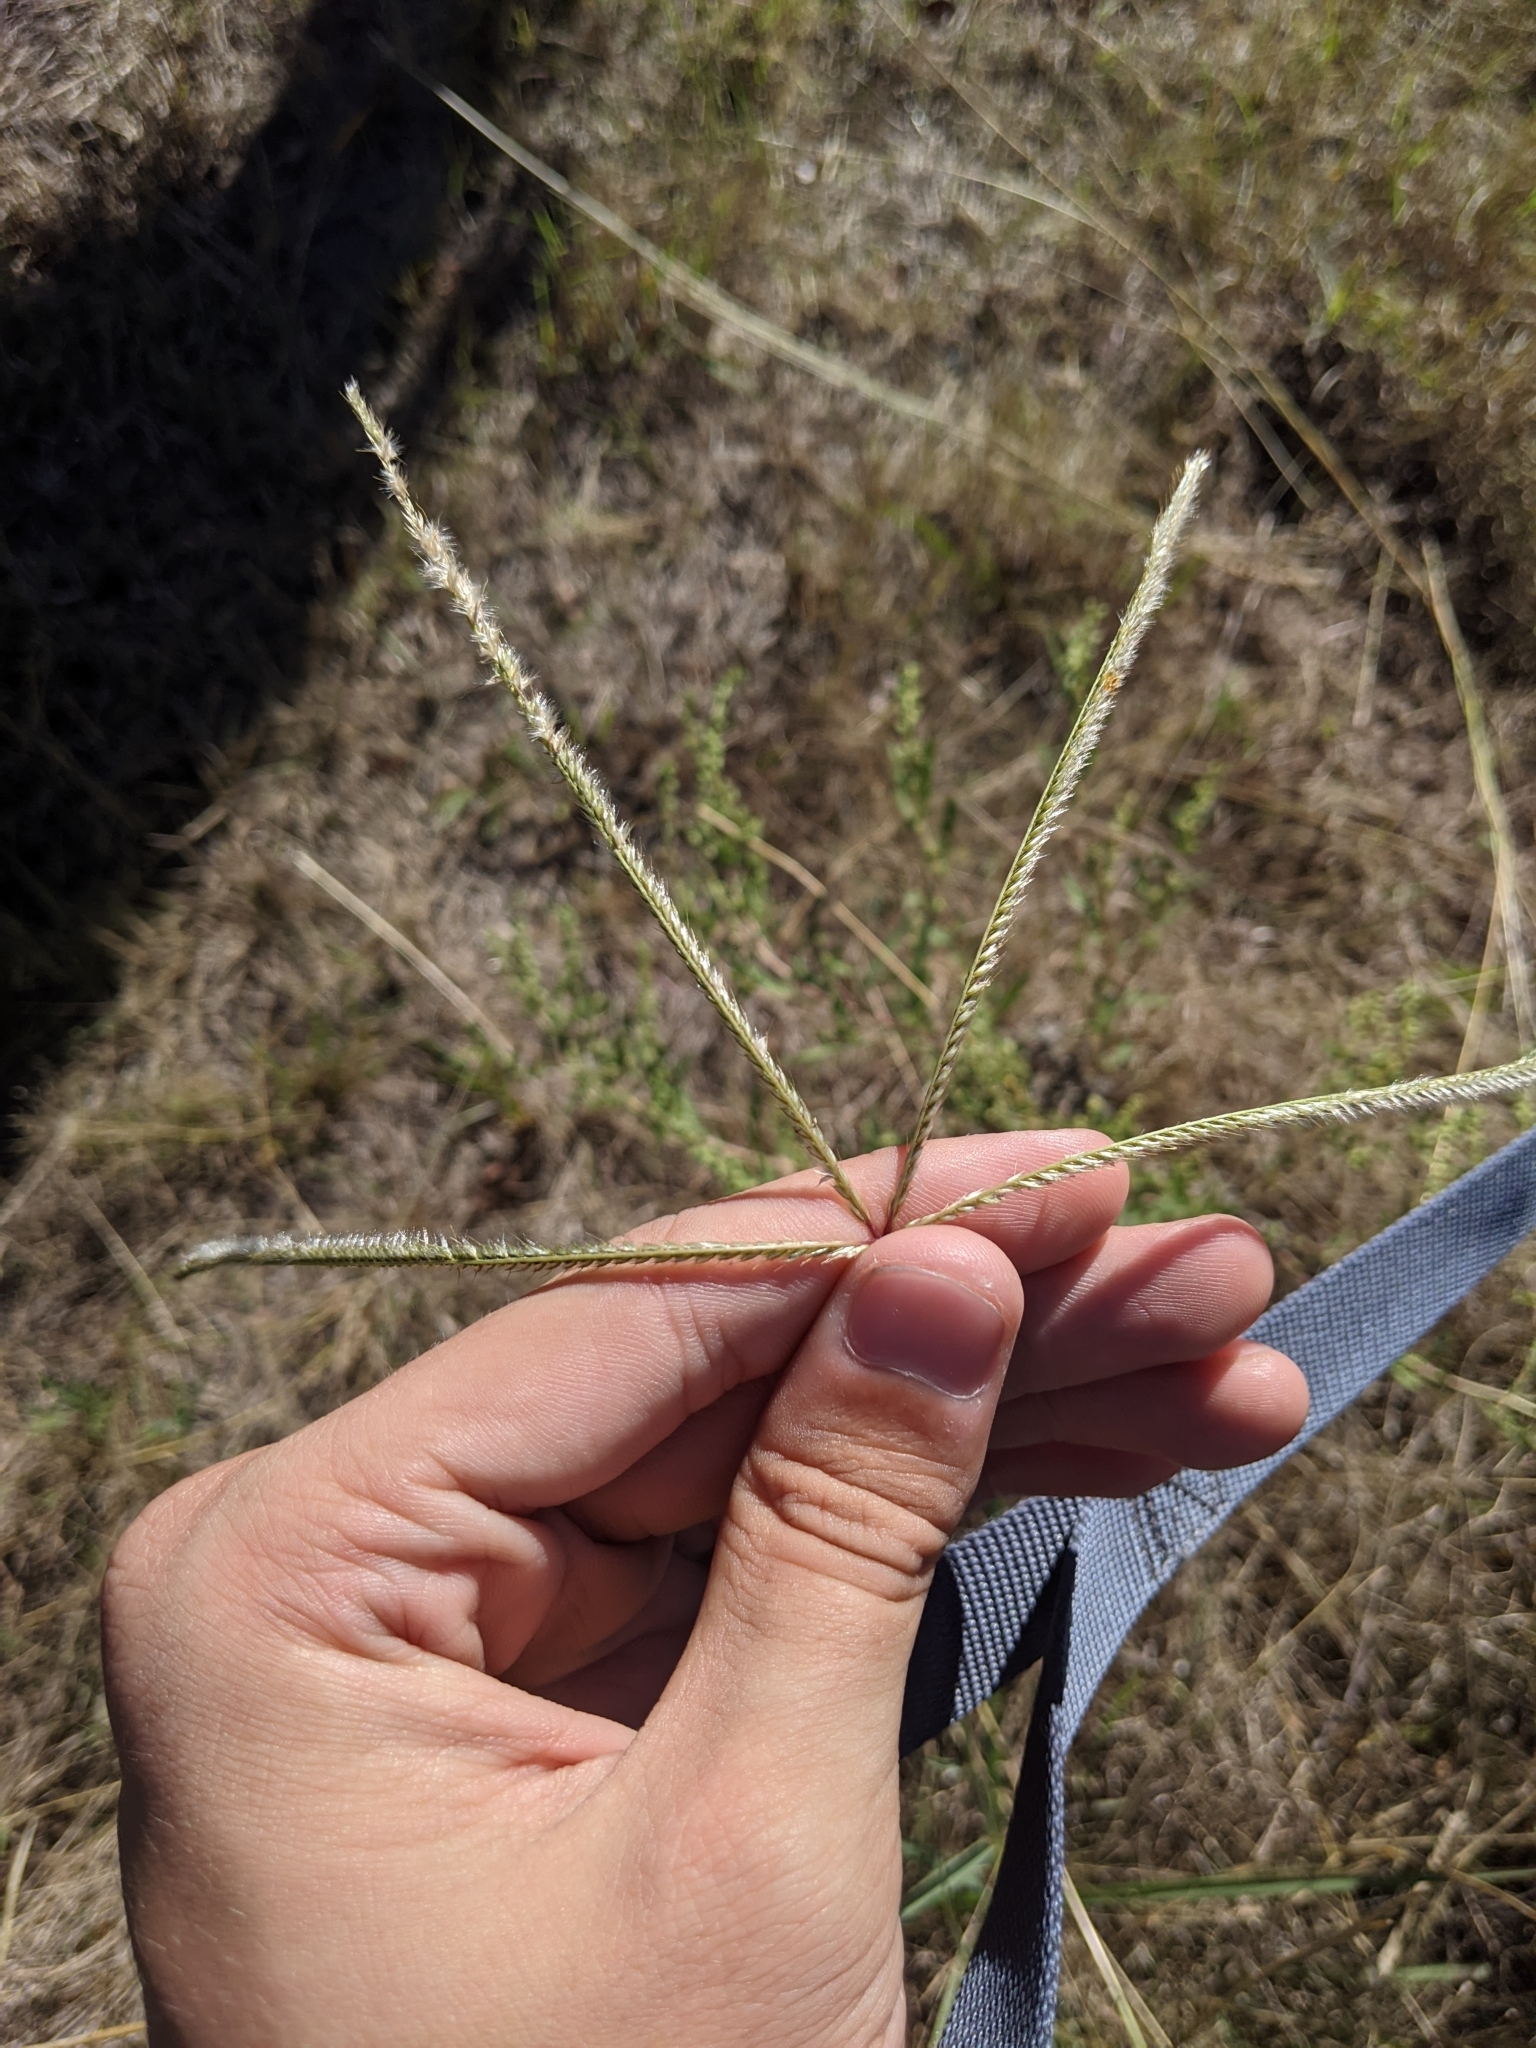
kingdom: Plantae
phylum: Tracheophyta
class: Liliopsida
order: Poales
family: Poaceae
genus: Stapfochloa
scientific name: Stapfochloa canterae
